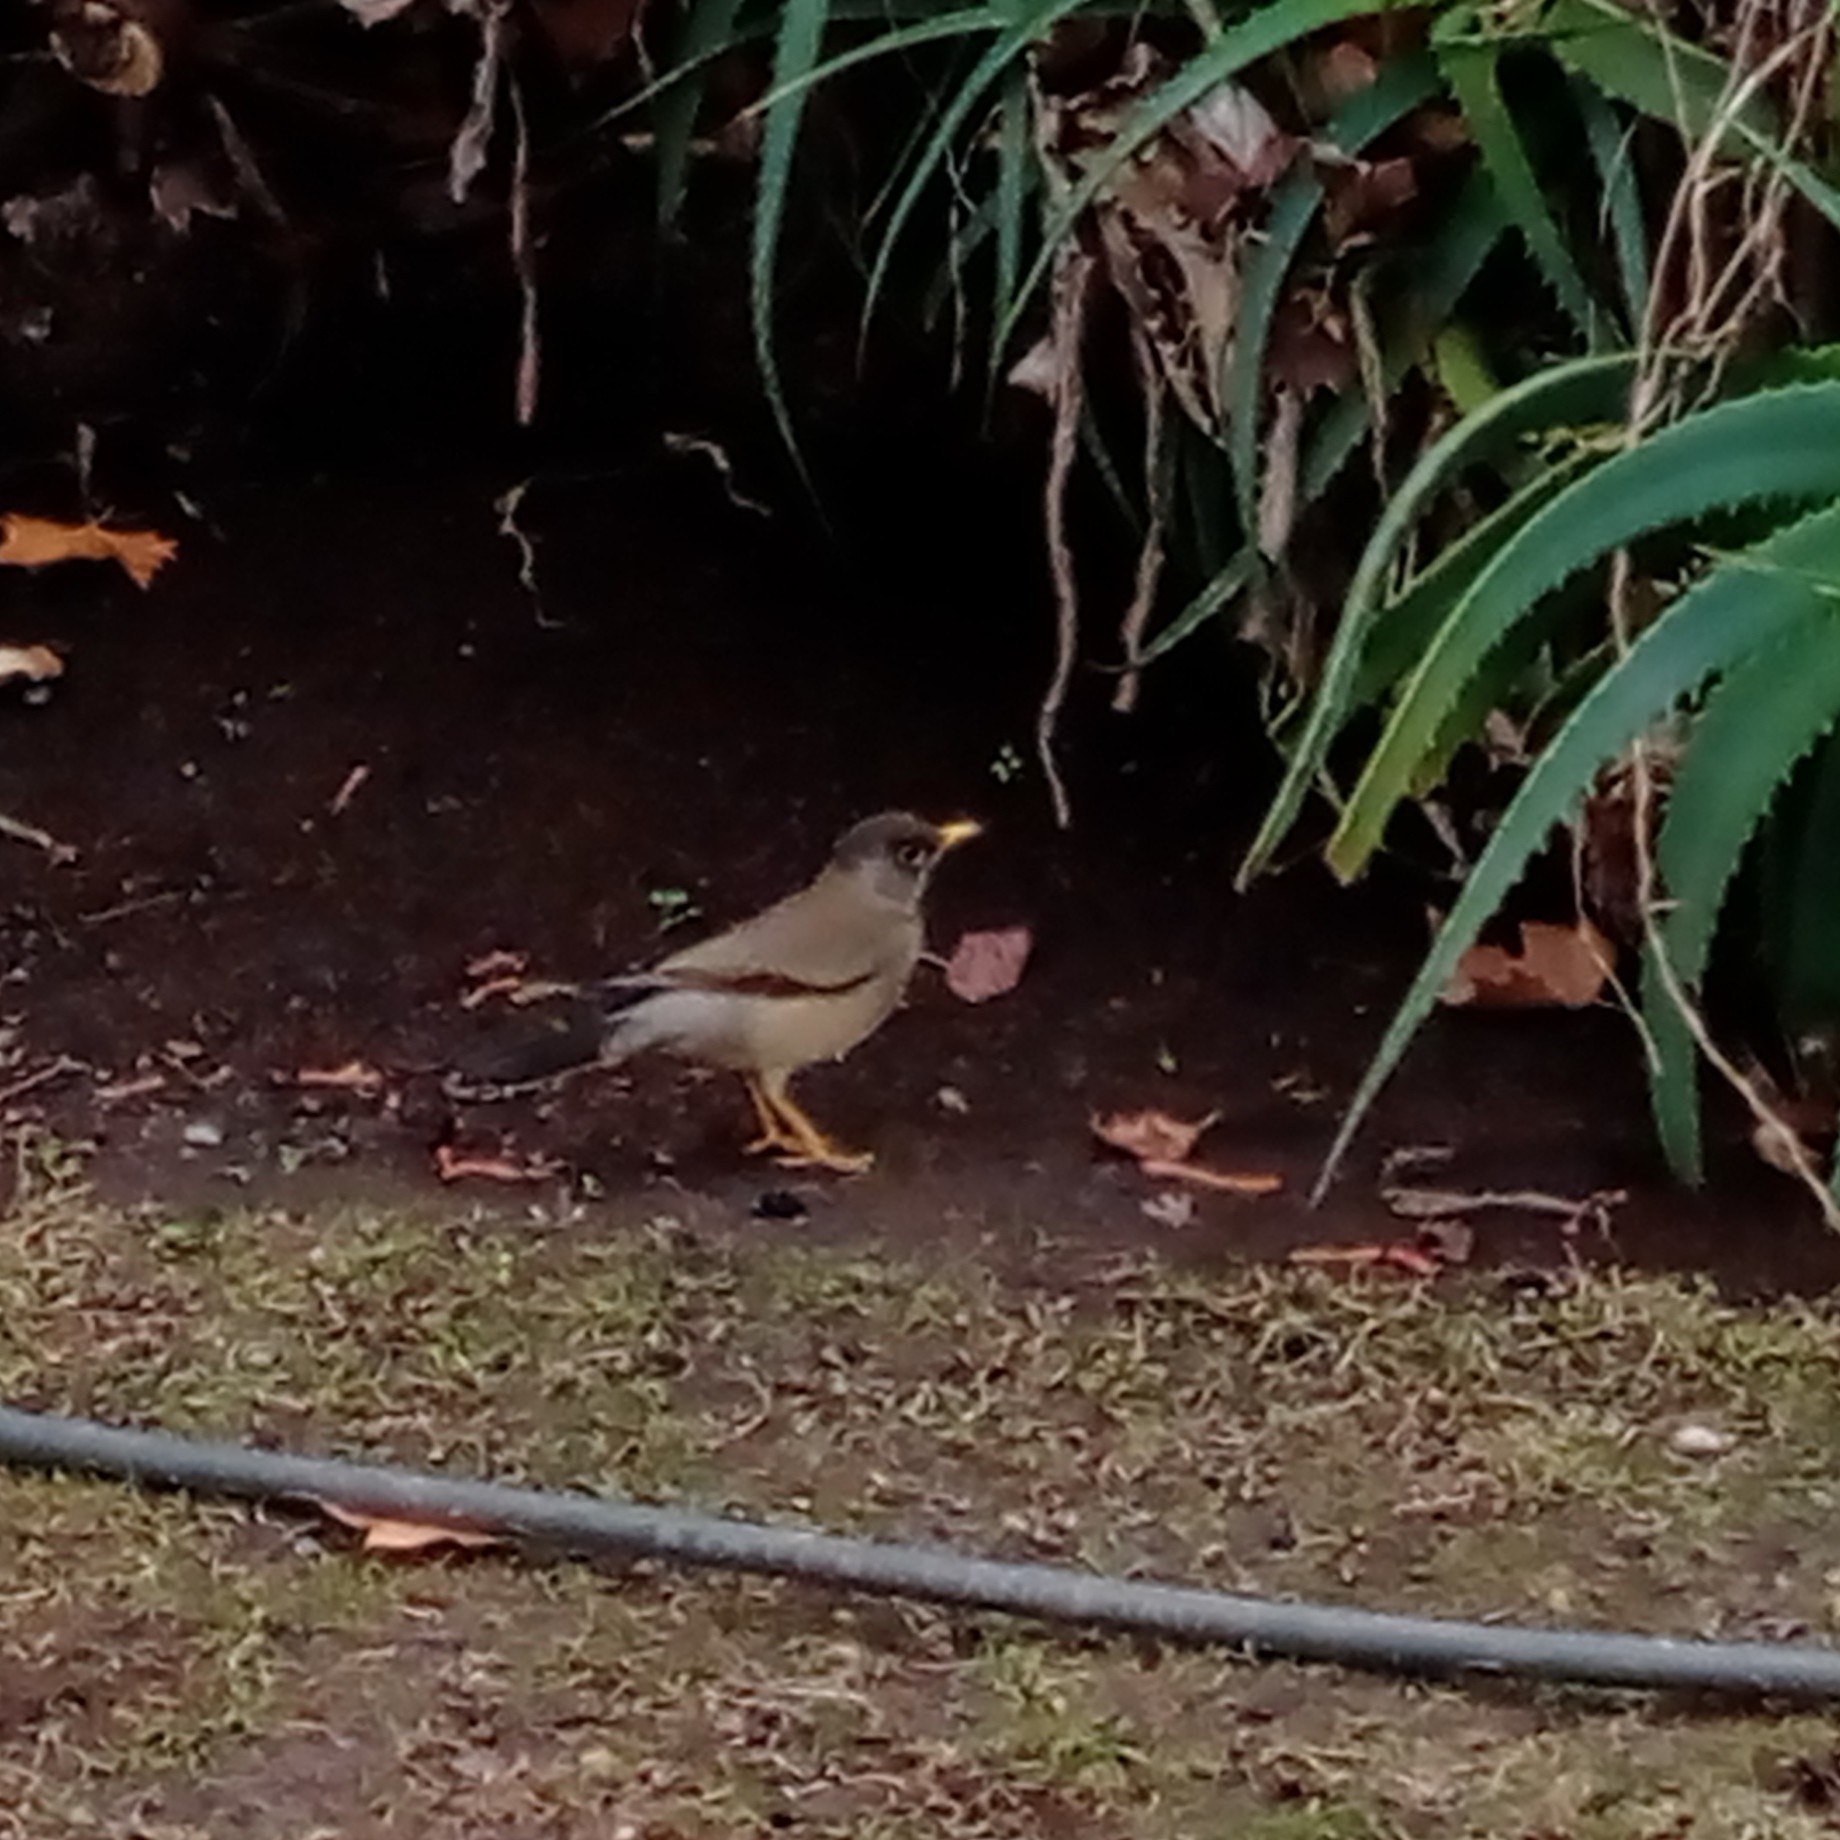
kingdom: Animalia
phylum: Chordata
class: Aves
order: Passeriformes
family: Turdidae
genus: Turdus
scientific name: Turdus falcklandii
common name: Austral thrush
